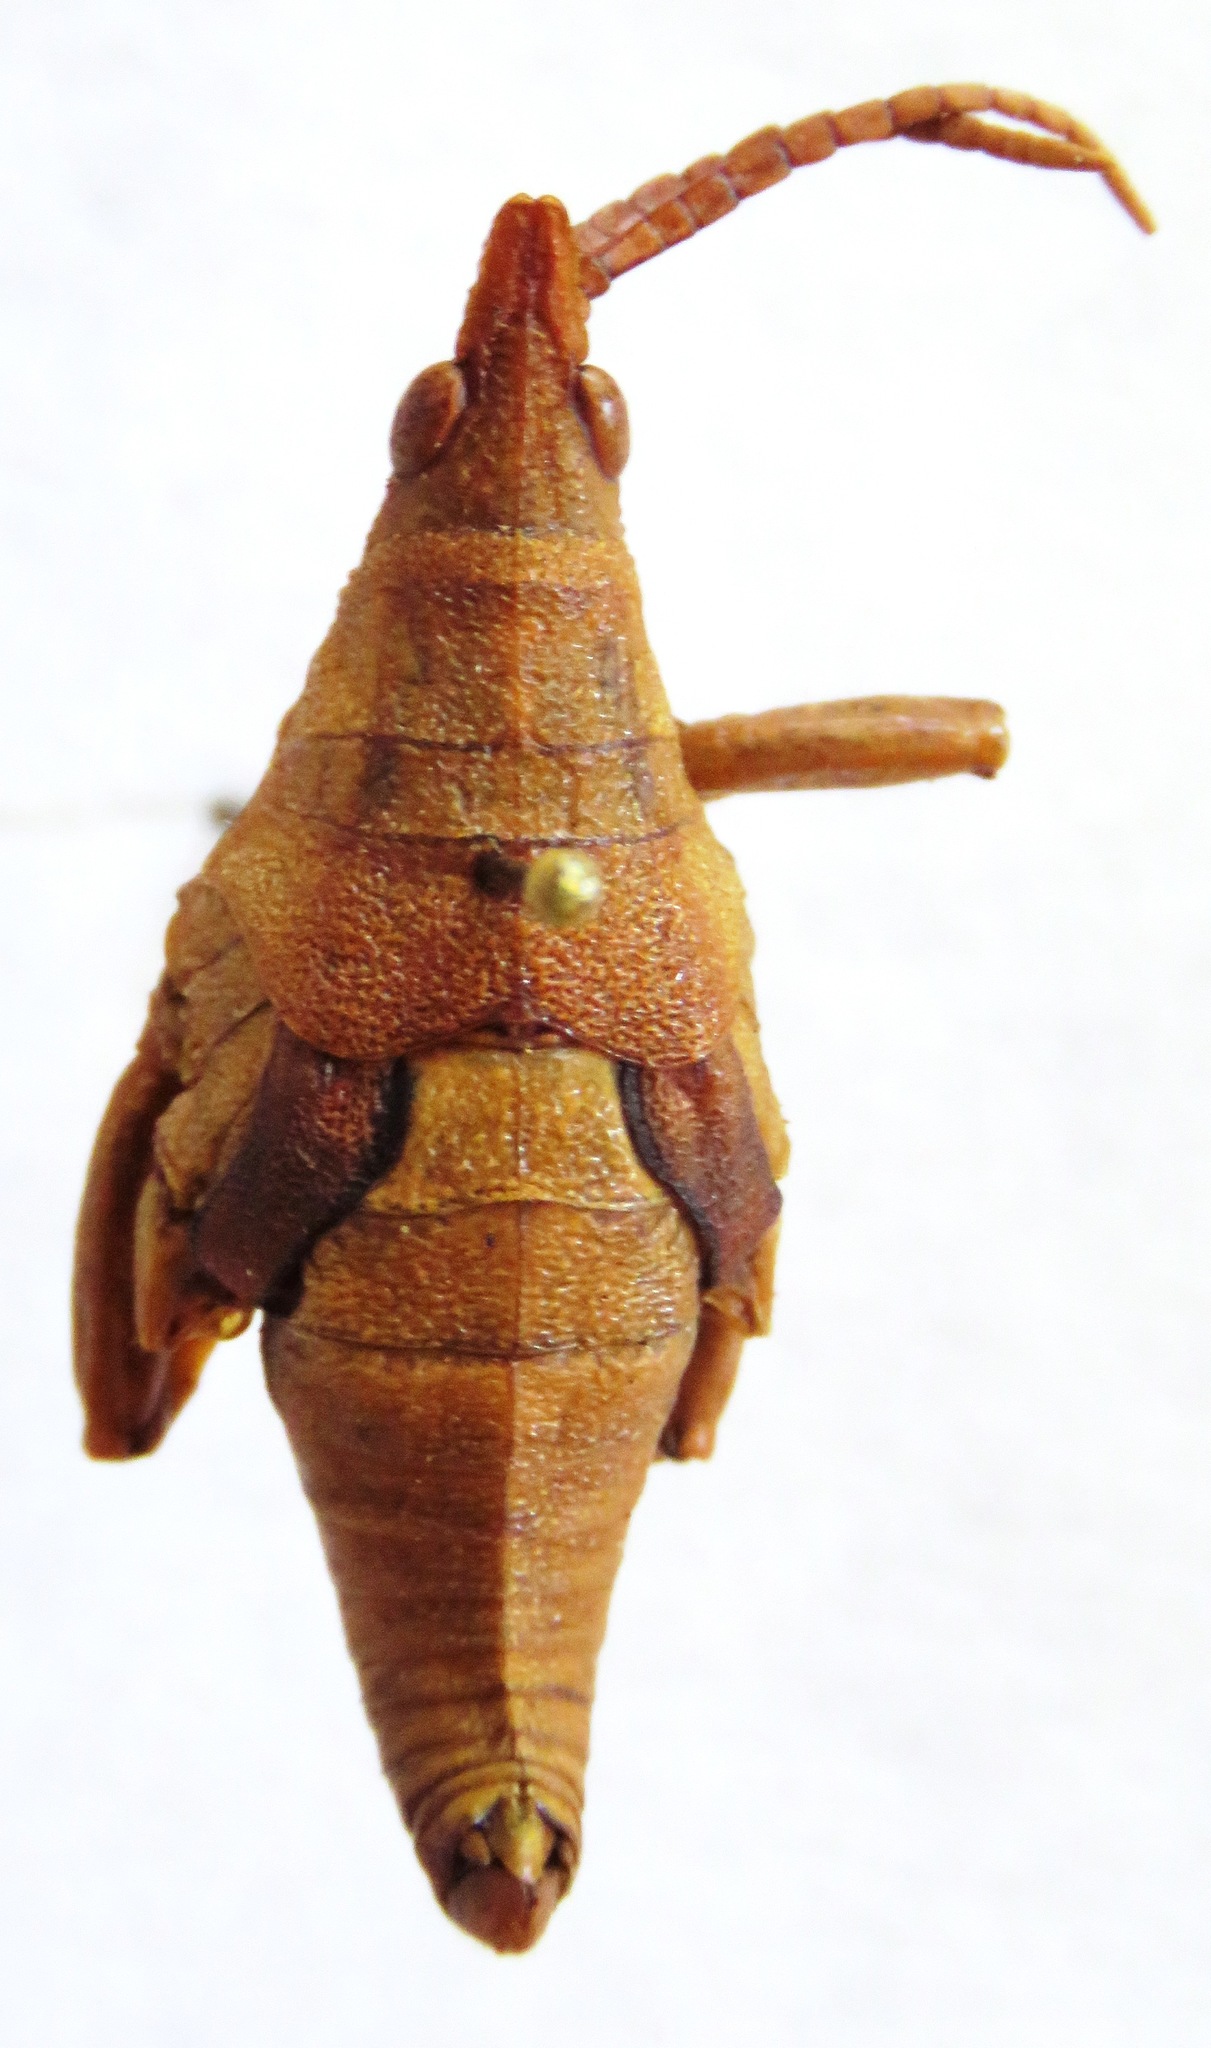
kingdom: Animalia
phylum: Arthropoda
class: Insecta
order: Orthoptera
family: Pyrgomorphidae
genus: Prosphena
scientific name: Prosphena scudderi
